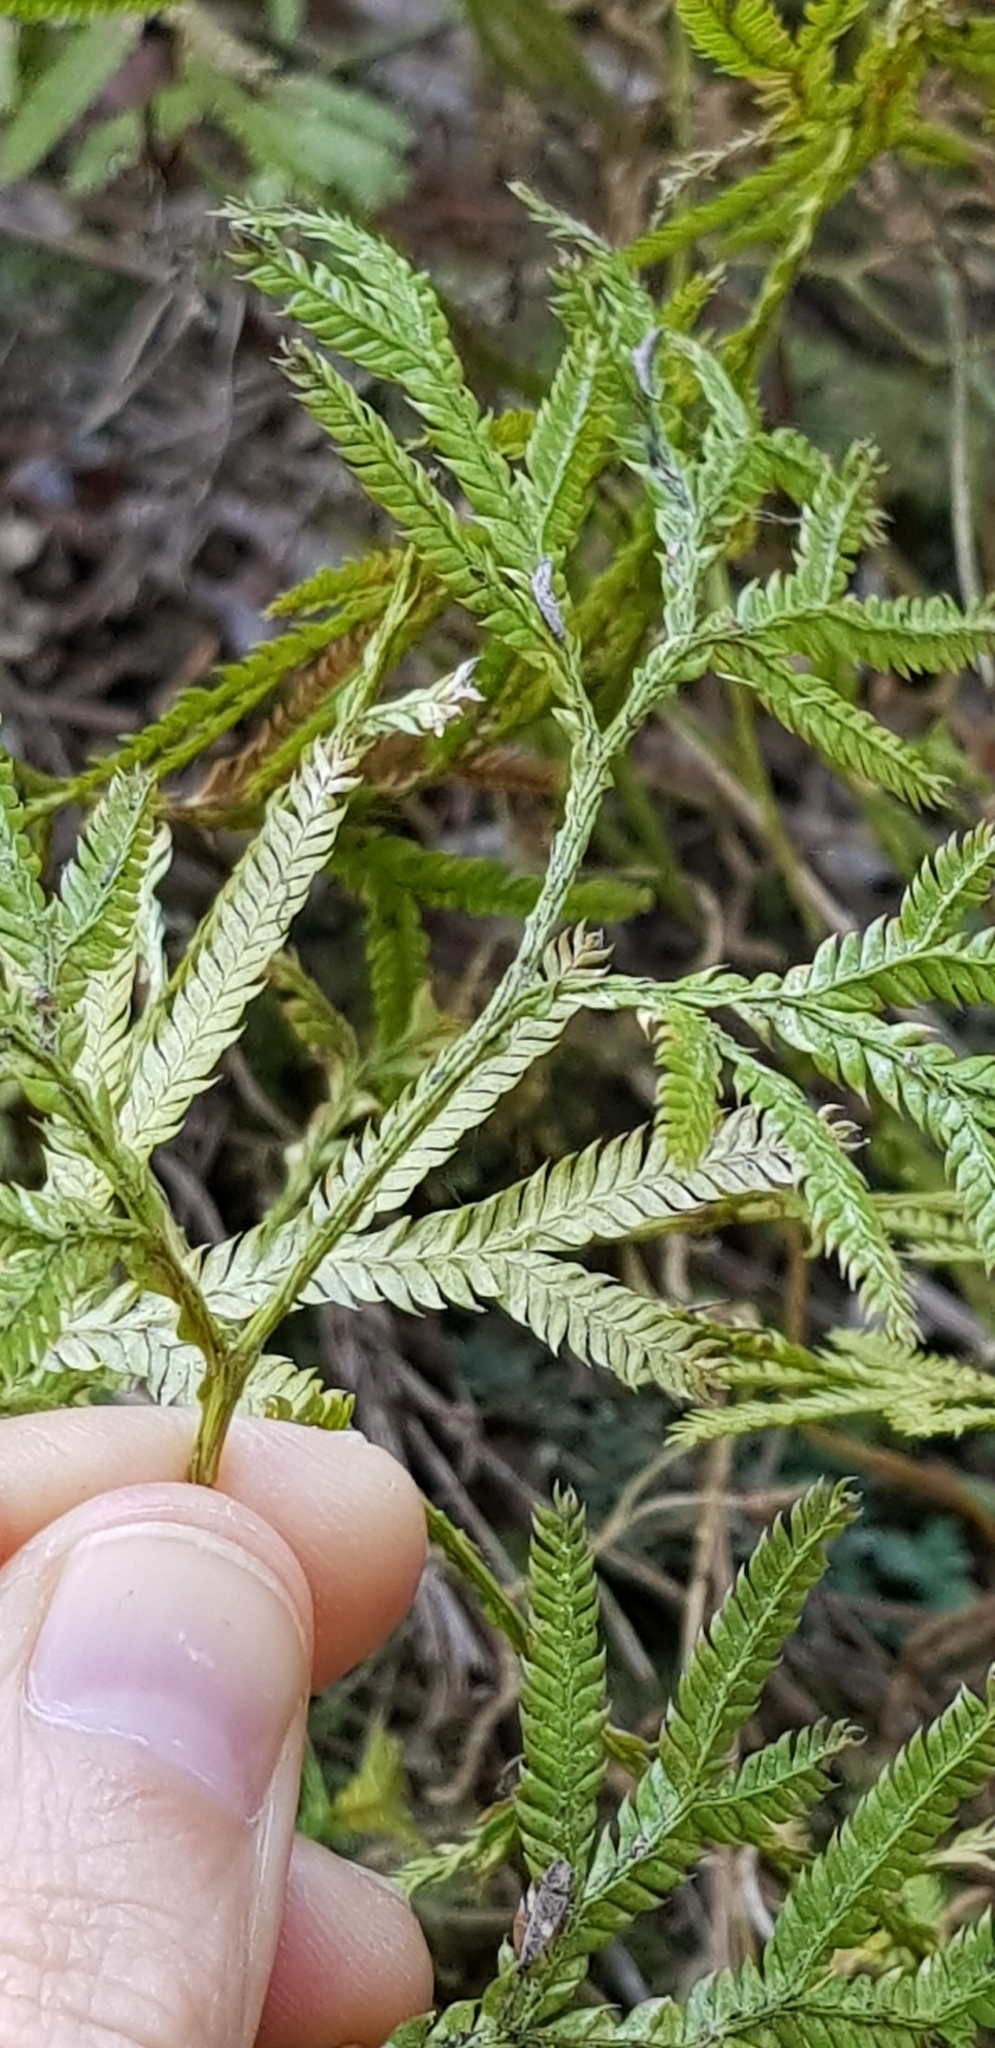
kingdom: Plantae
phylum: Tracheophyta
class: Lycopodiopsida
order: Lycopodiales
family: Lycopodiaceae
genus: Lycopodium
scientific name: Lycopodium volubile
